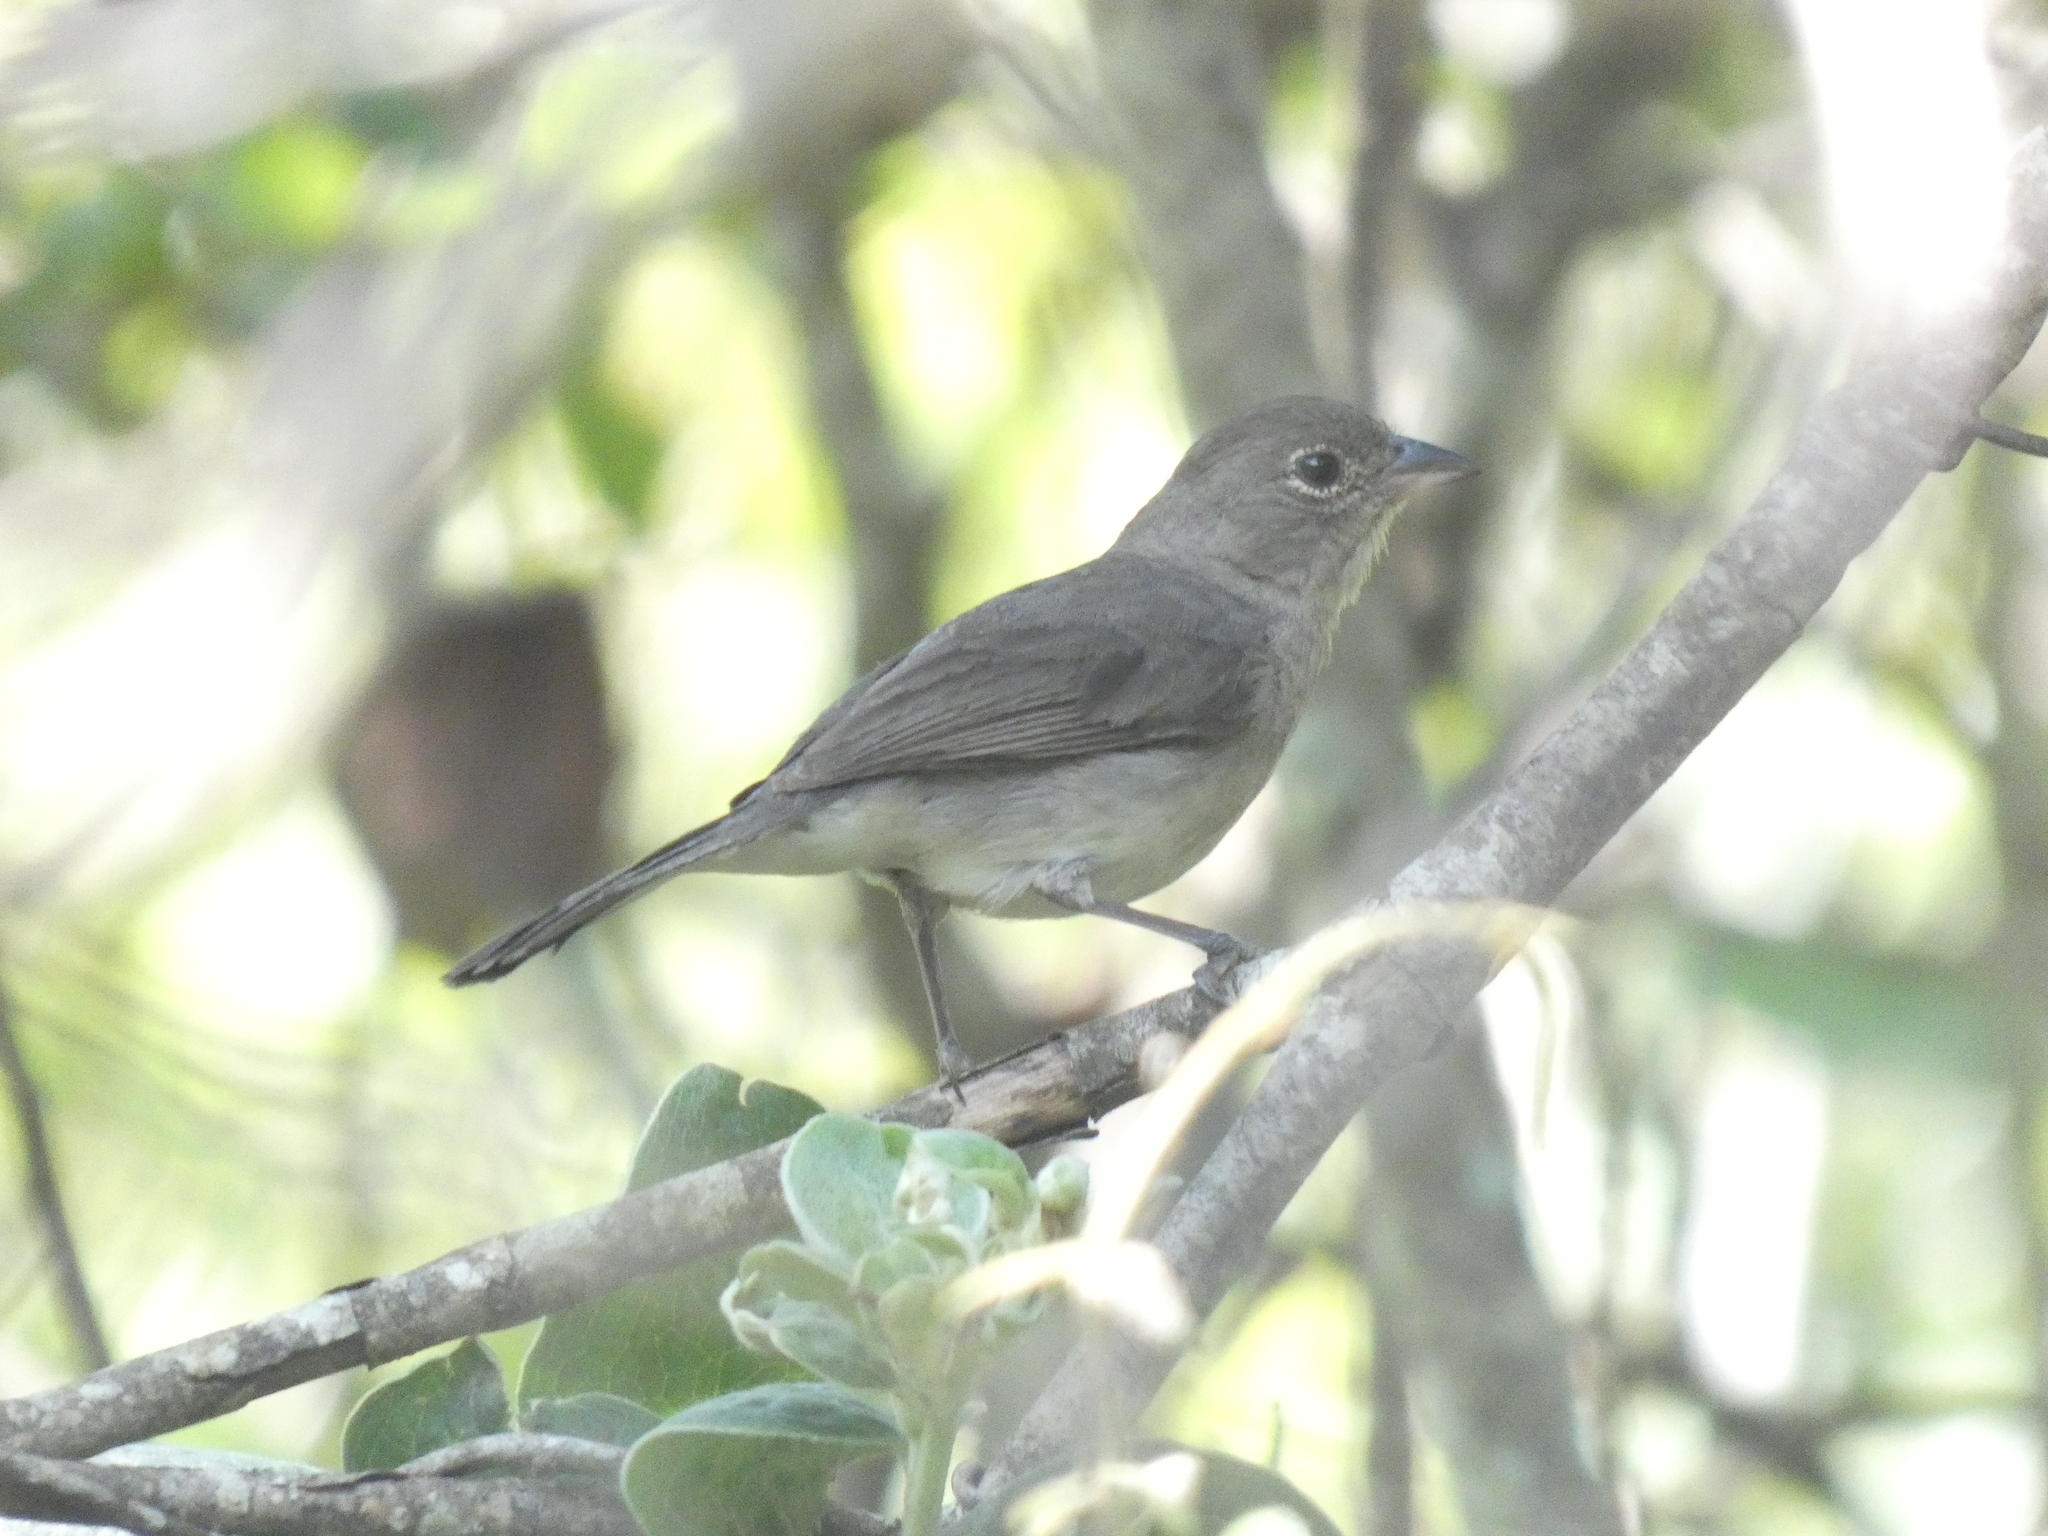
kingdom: Animalia
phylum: Chordata
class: Aves
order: Passeriformes
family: Thraupidae
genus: Coryphospingus
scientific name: Coryphospingus pileatus
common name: Grey pileated finch
